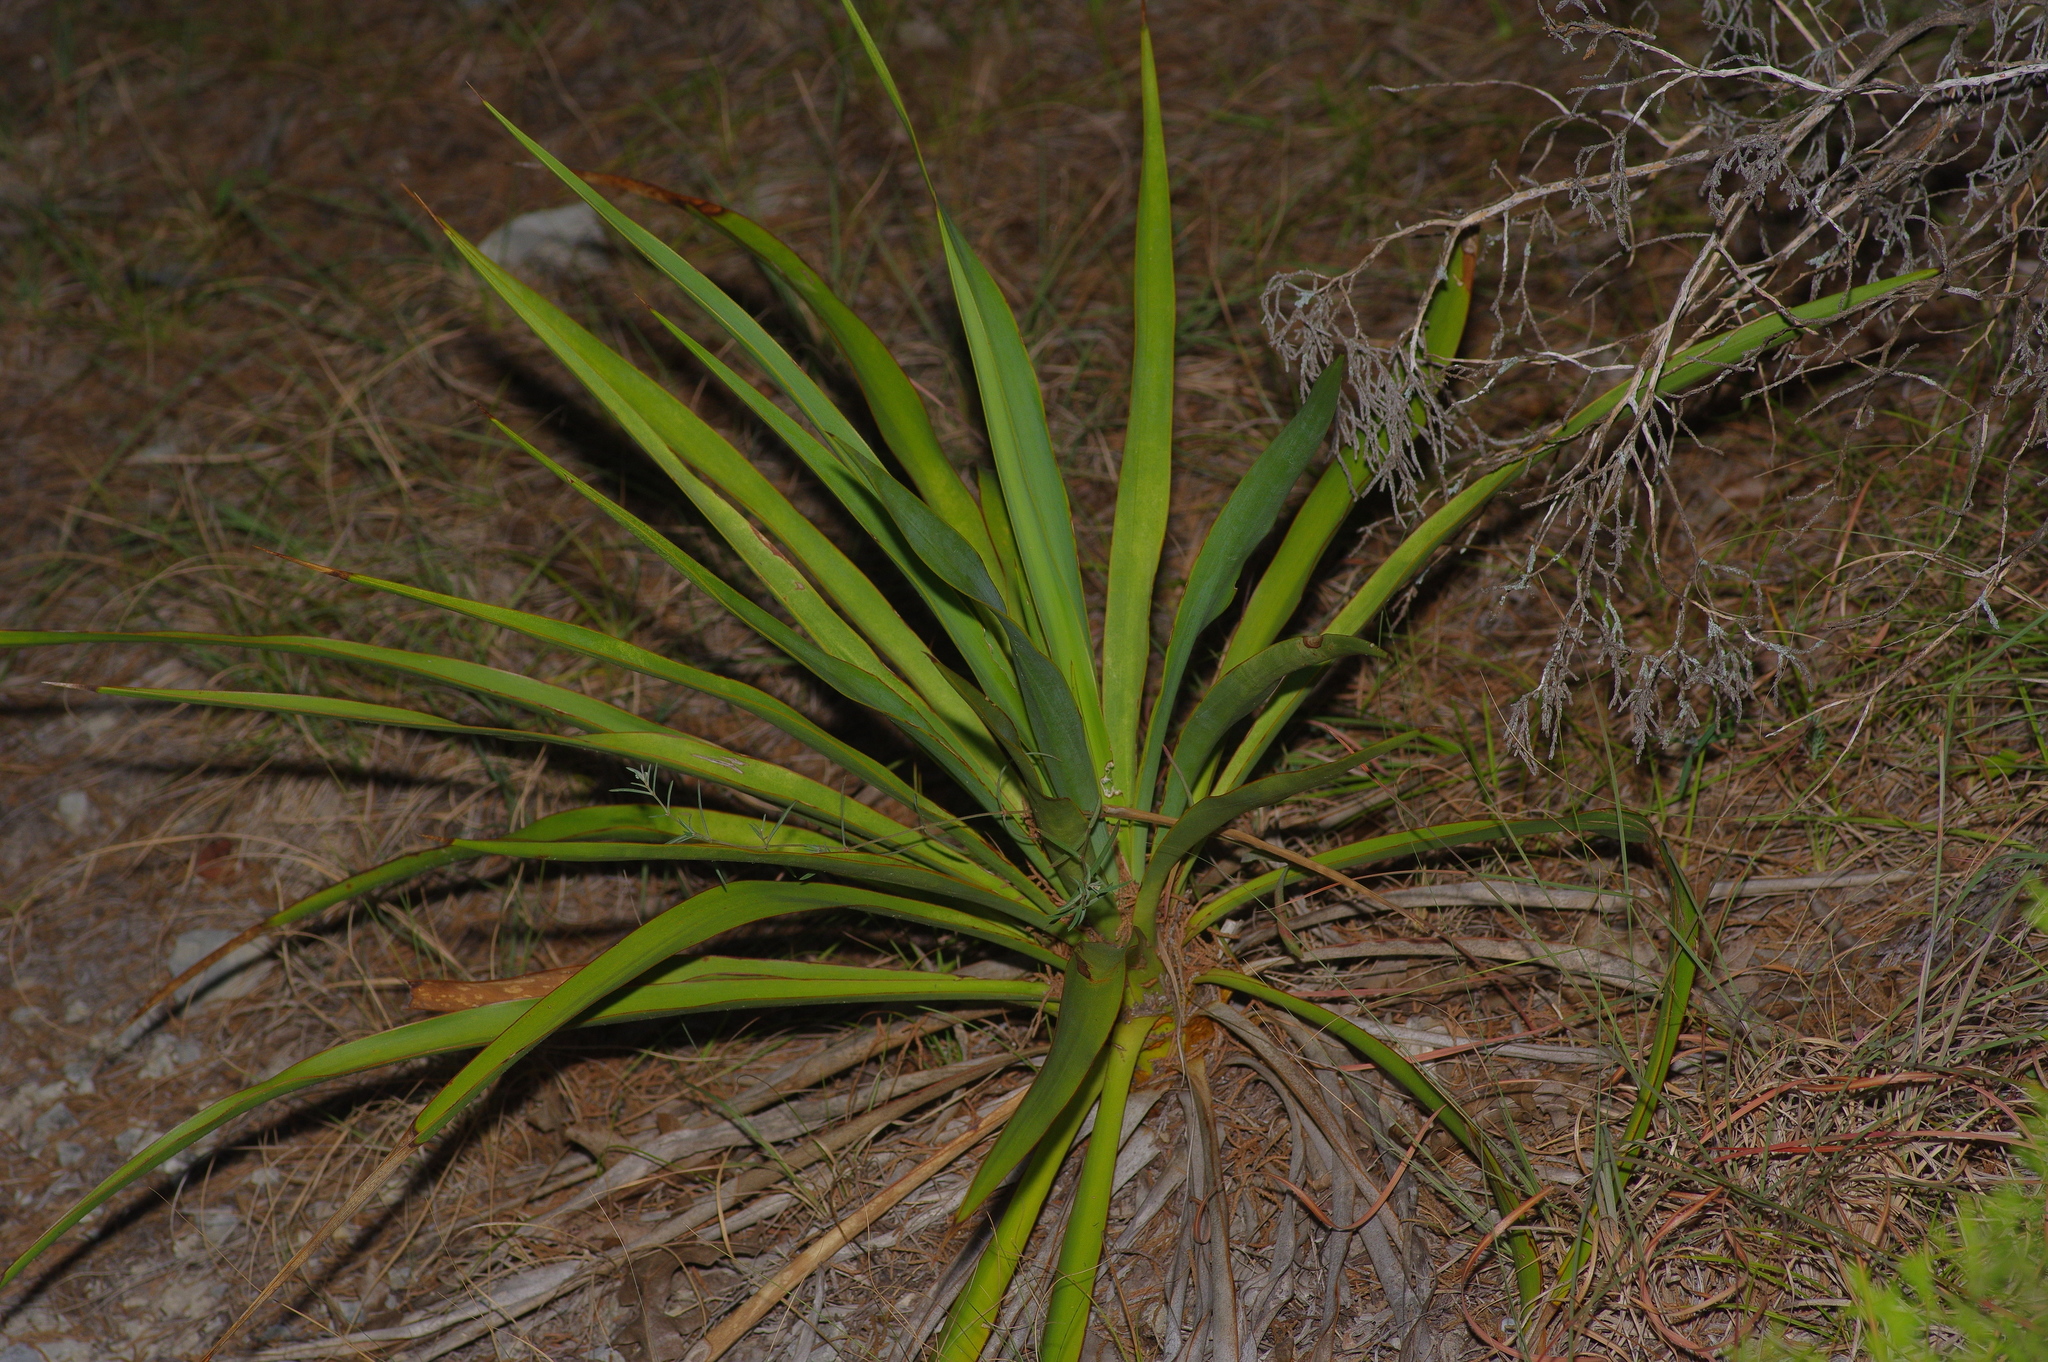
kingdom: Plantae
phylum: Tracheophyta
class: Liliopsida
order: Asparagales
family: Asparagaceae
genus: Yucca
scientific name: Yucca rupicola
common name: Twisted-leaf spanish-dagger
